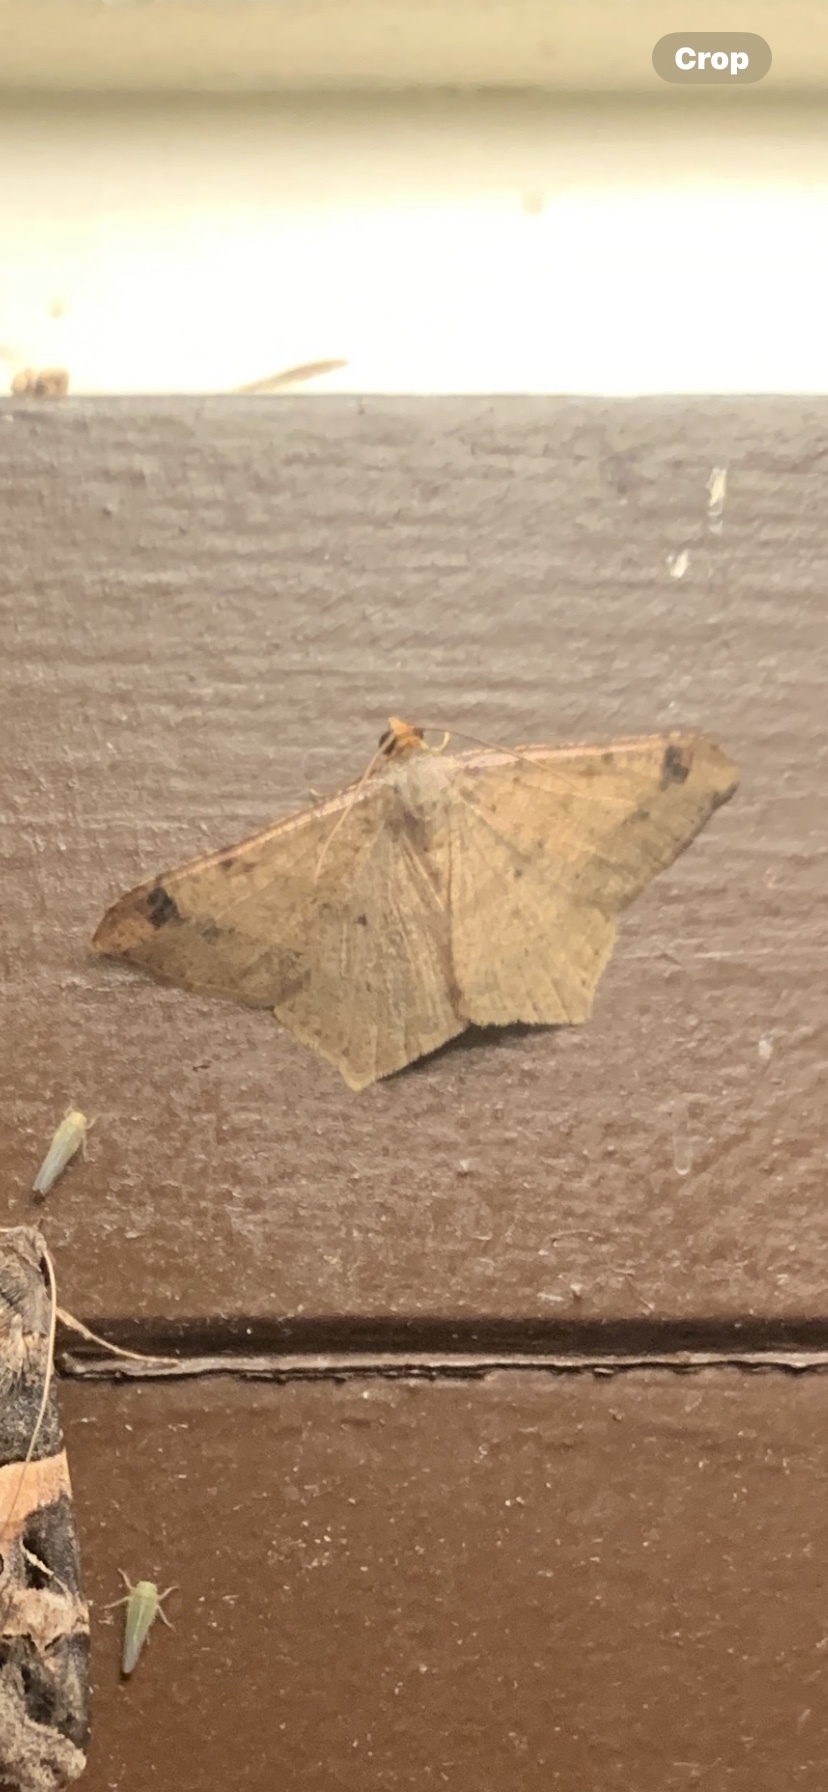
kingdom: Animalia
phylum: Arthropoda
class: Insecta
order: Lepidoptera
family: Geometridae
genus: Macaria
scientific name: Macaria abydata
